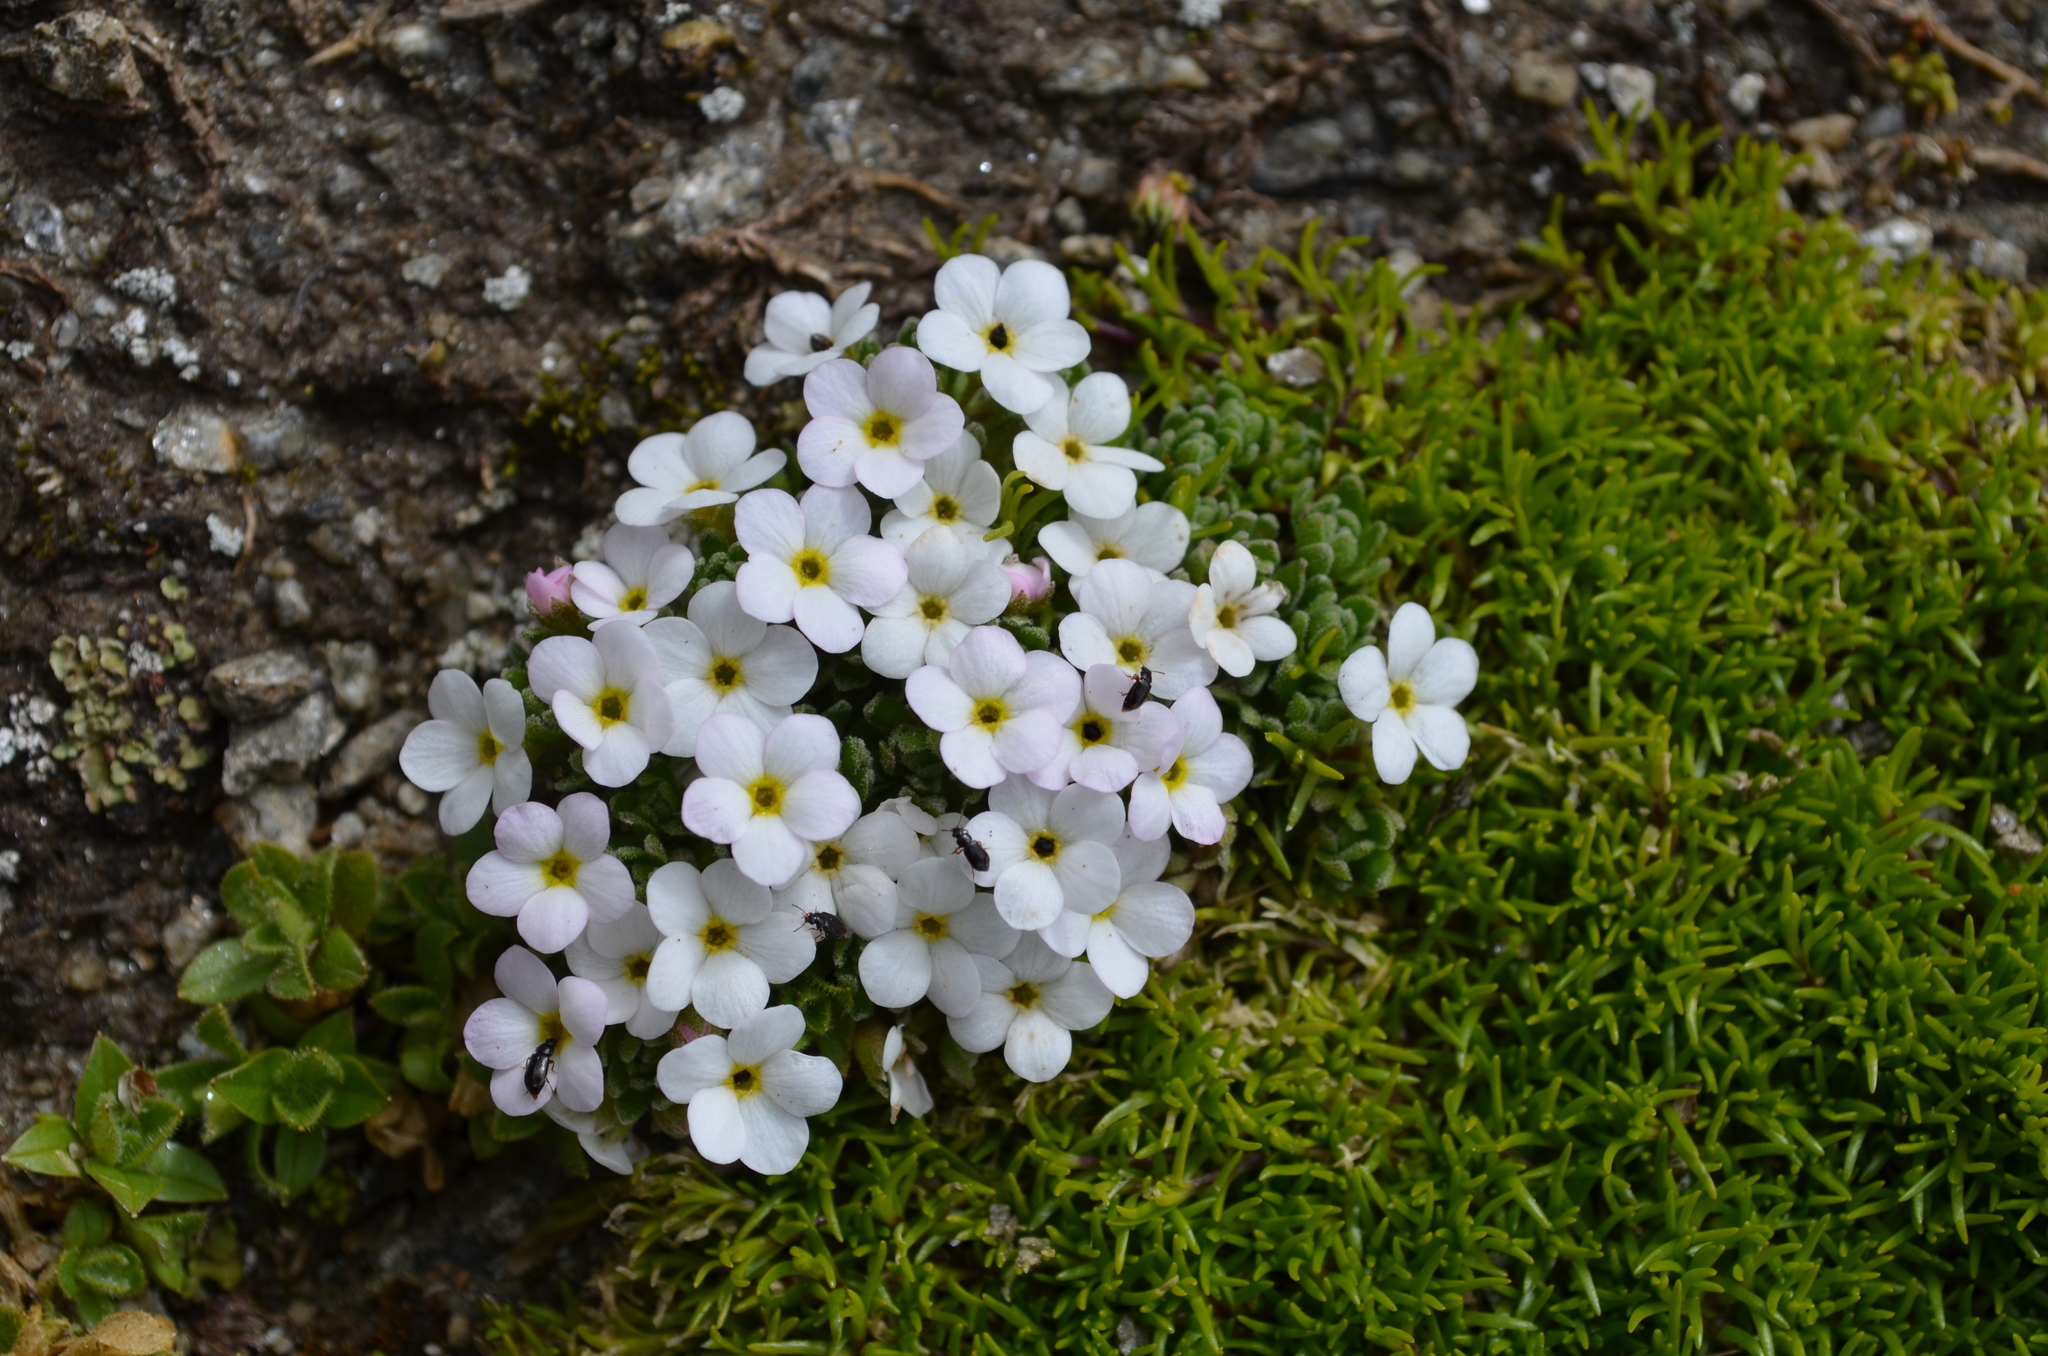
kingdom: Plantae
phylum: Tracheophyta
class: Magnoliopsida
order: Ericales
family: Primulaceae
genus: Androsace
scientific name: Androsace alpina
